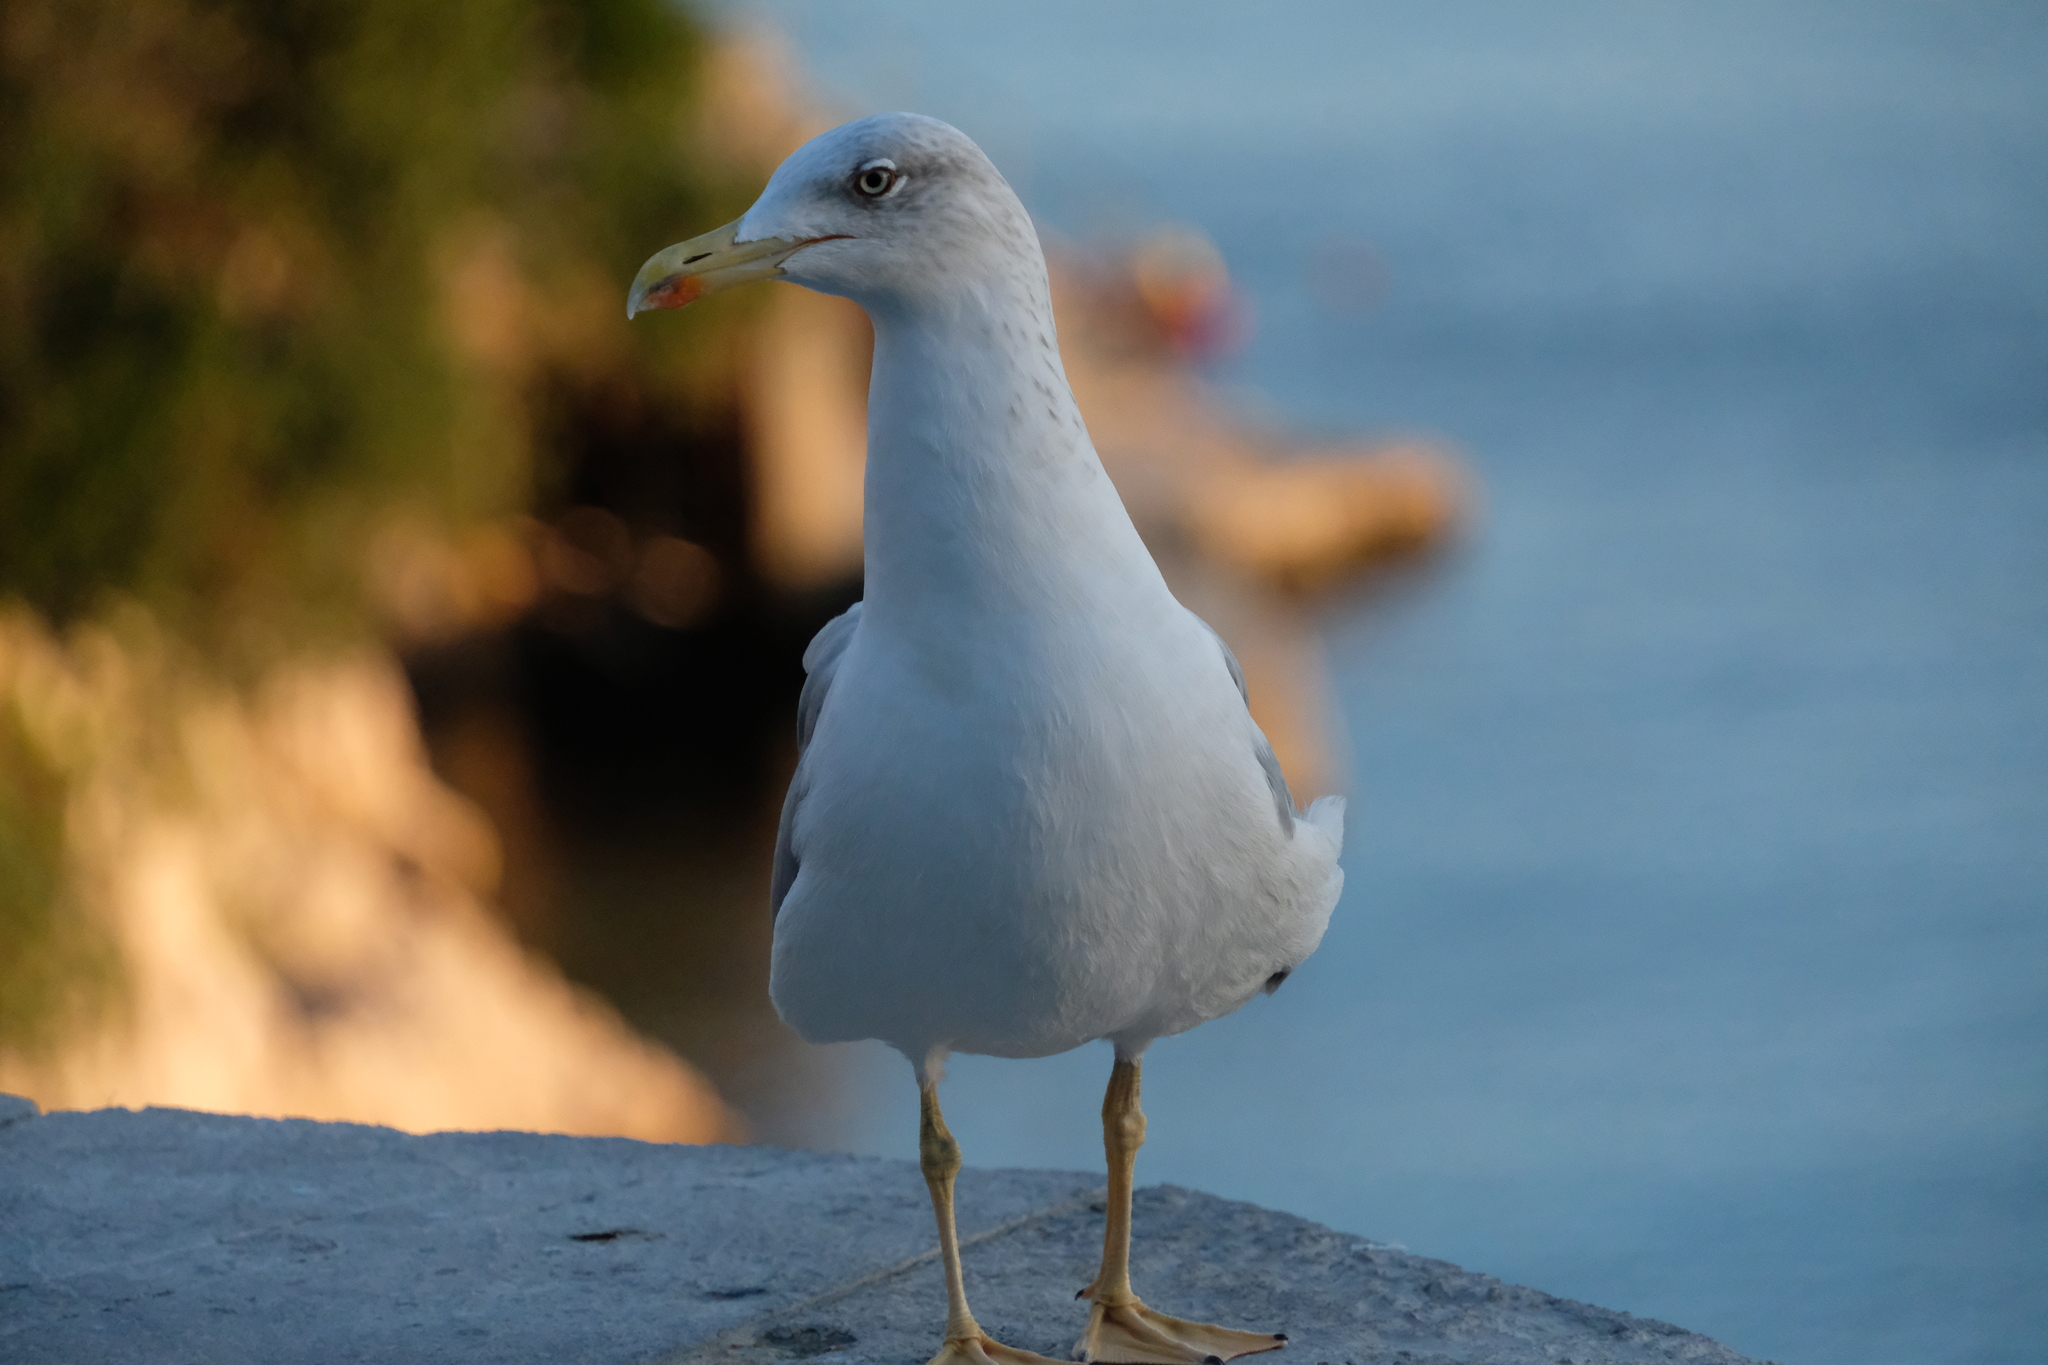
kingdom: Animalia
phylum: Chordata
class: Aves
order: Charadriiformes
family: Laridae
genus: Larus
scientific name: Larus michahellis
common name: Yellow-legged gull
